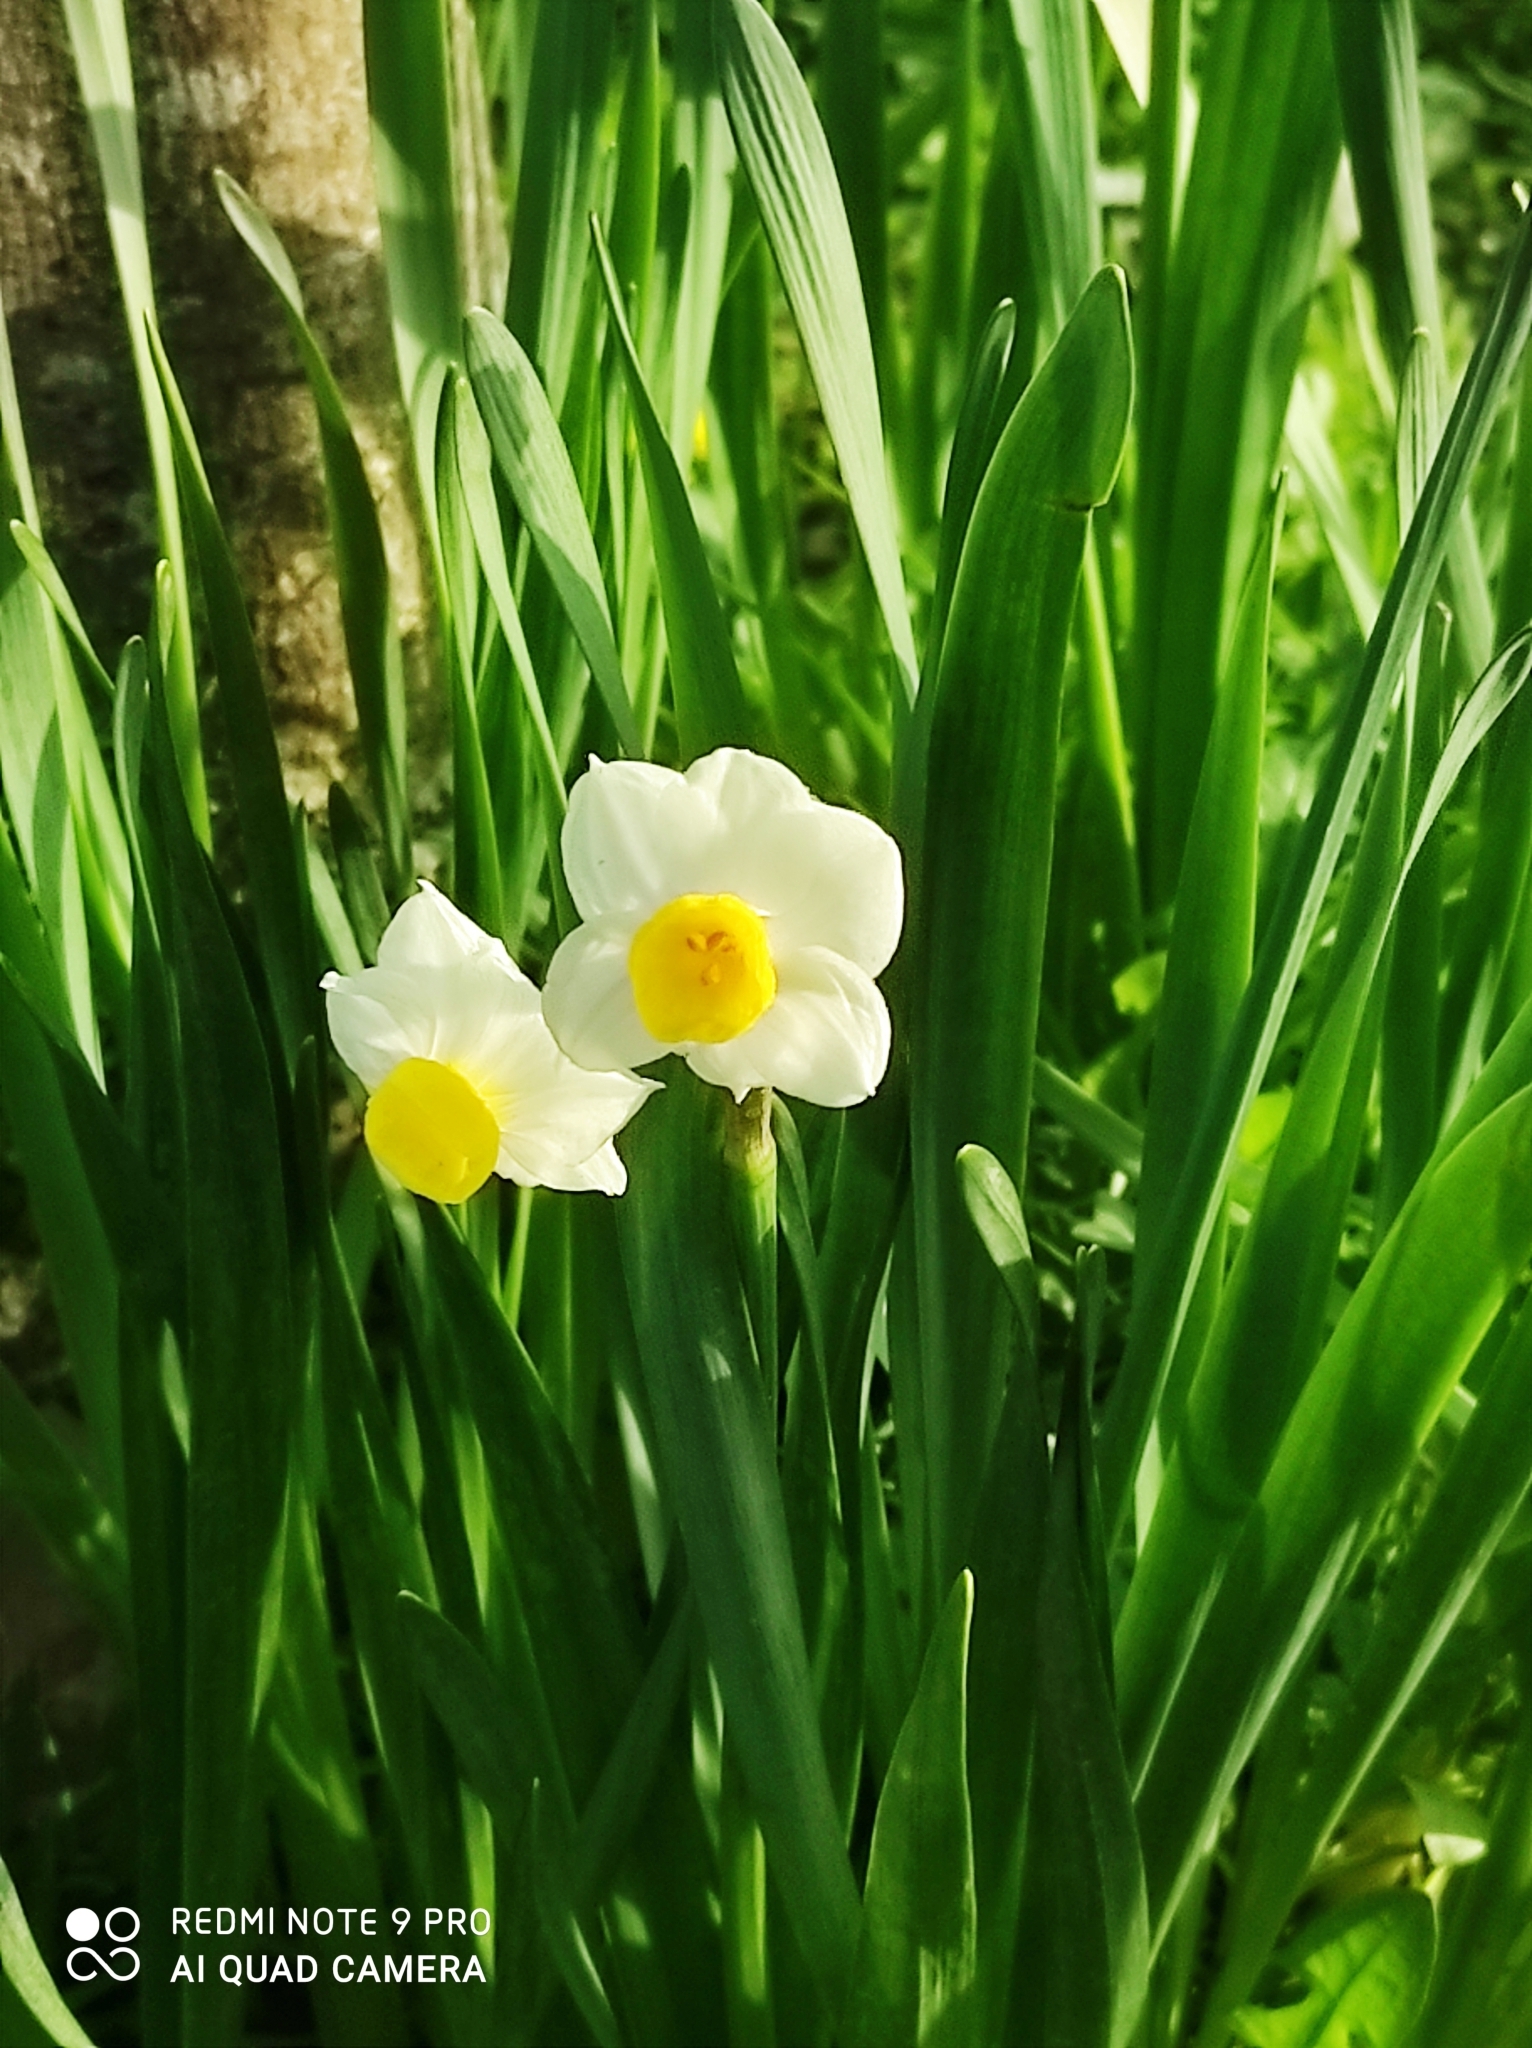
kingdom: Plantae
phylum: Tracheophyta
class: Liliopsida
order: Asparagales
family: Amaryllidaceae
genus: Narcissus
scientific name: Narcissus
